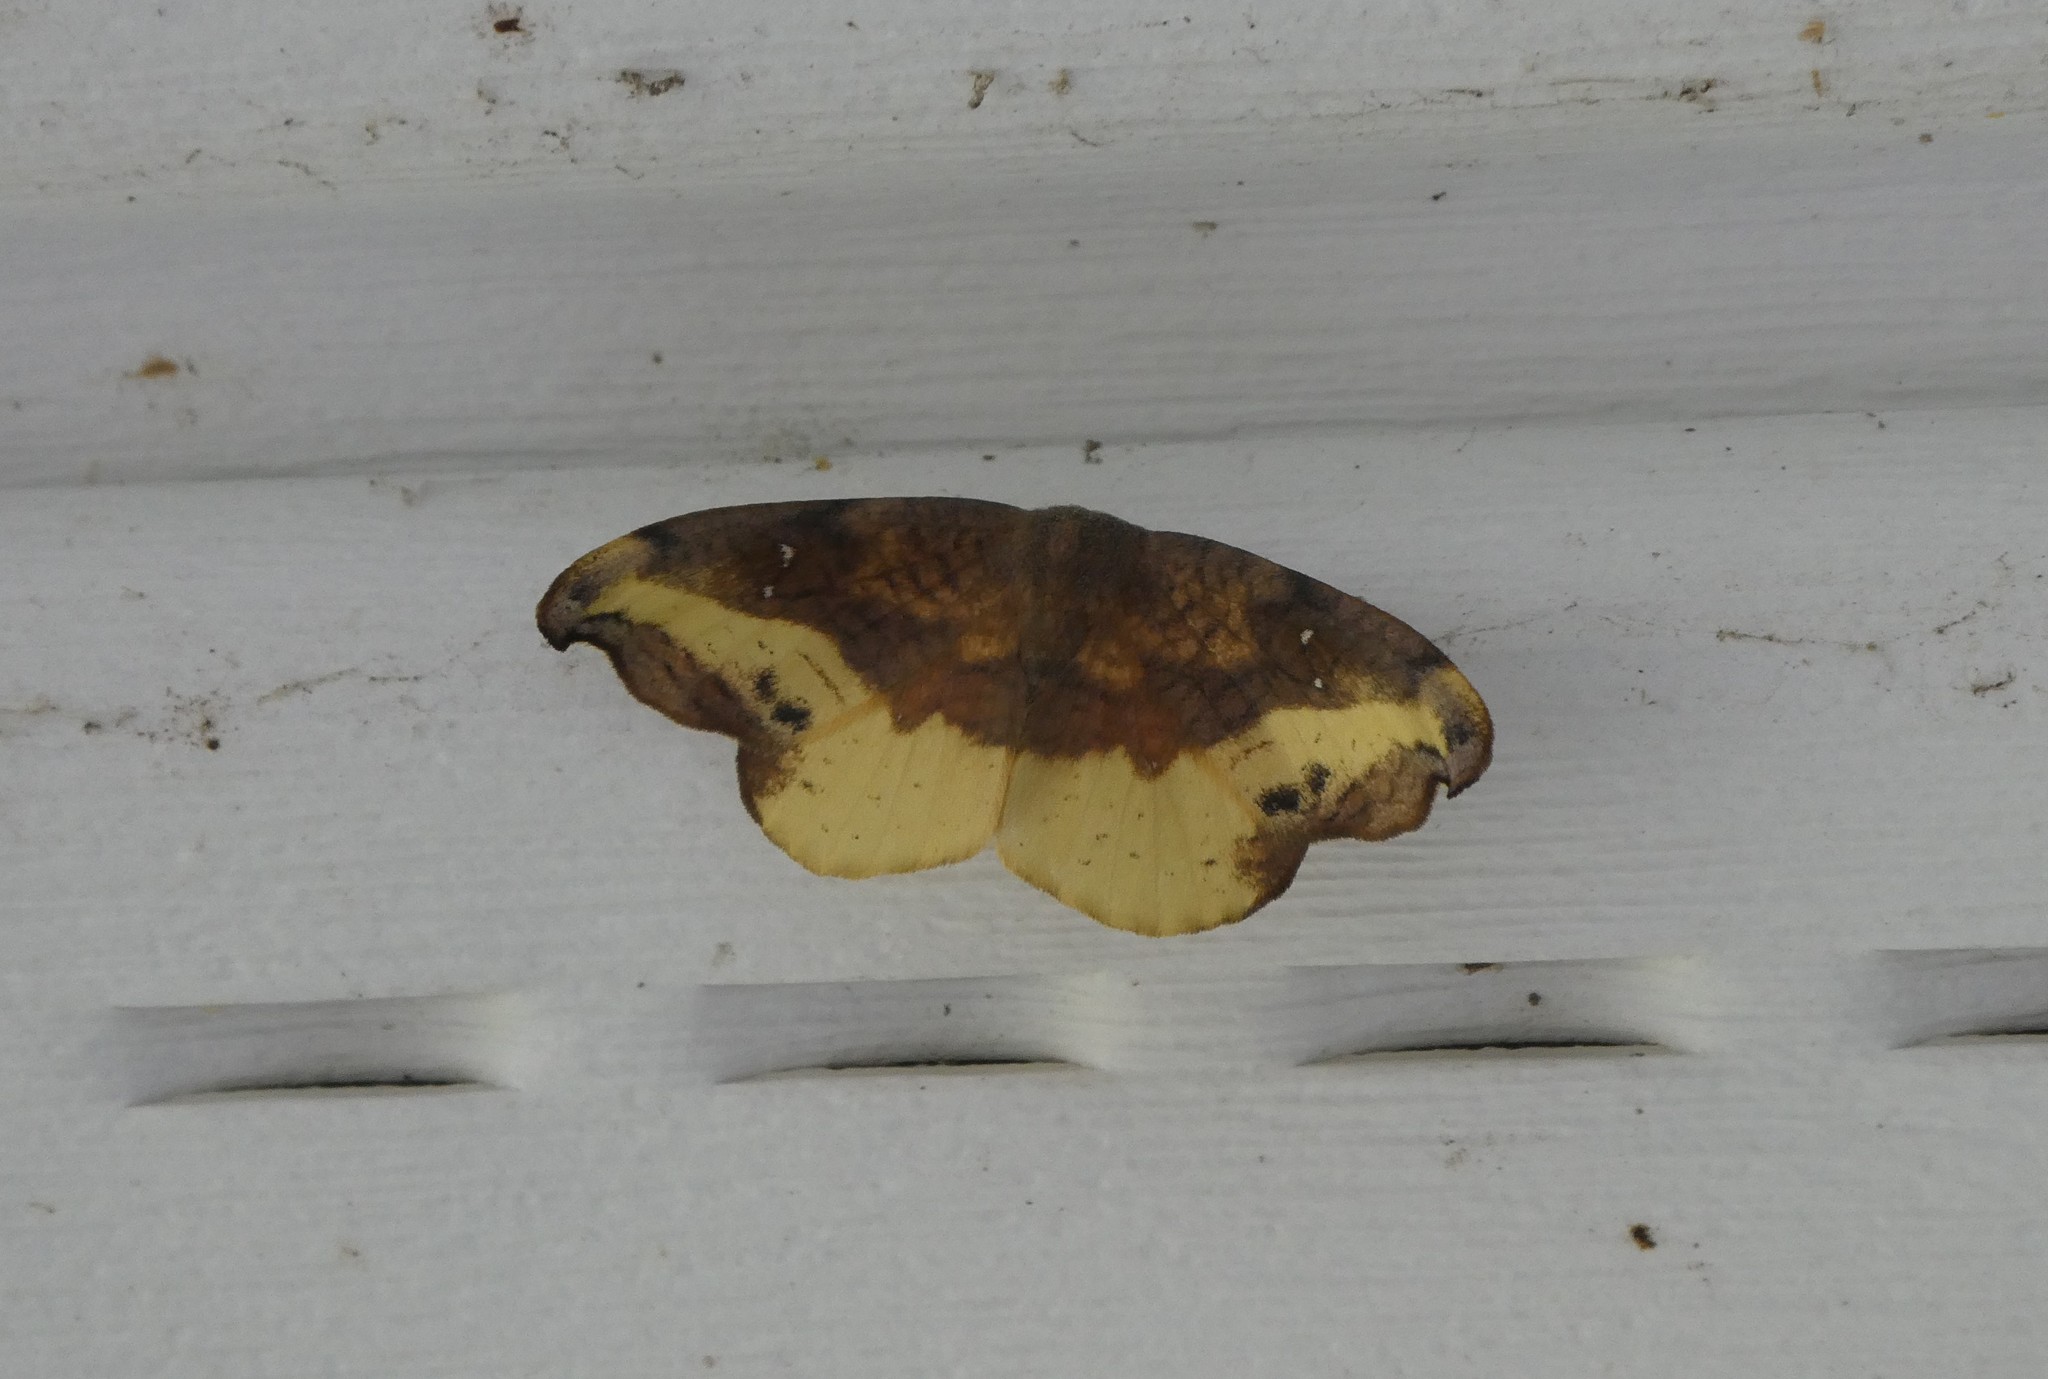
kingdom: Animalia
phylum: Arthropoda
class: Insecta
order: Lepidoptera
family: Drepanidae
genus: Oreta
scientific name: Oreta rosea
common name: Rose hooktip
